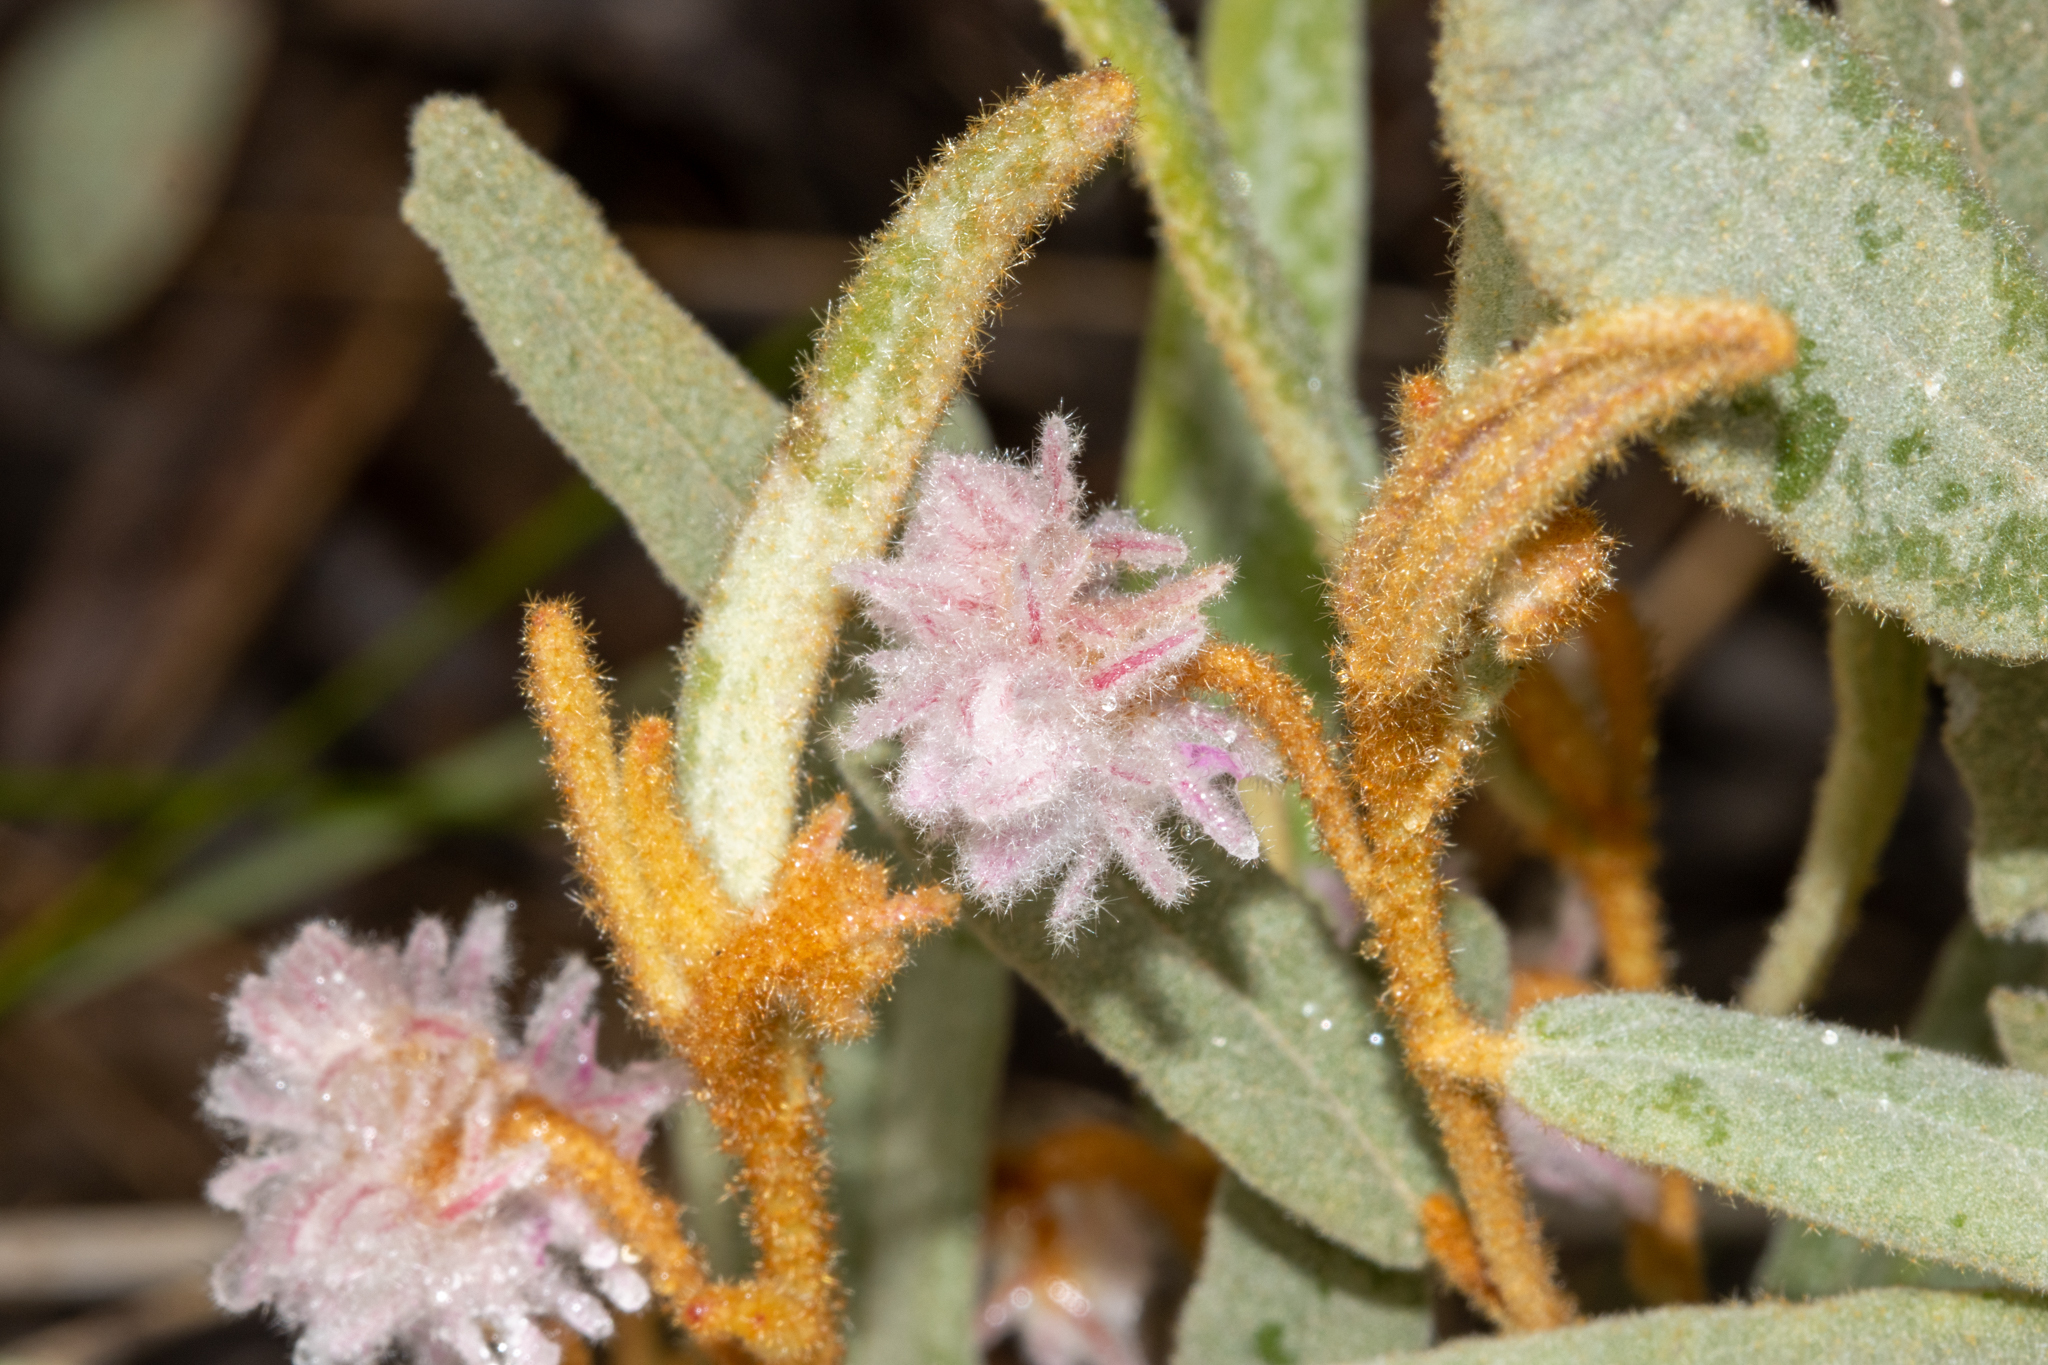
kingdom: Plantae
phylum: Tracheophyta
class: Magnoliopsida
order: Malvales
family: Malvaceae
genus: Lasiopetalum
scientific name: Lasiopetalum erectifolium
